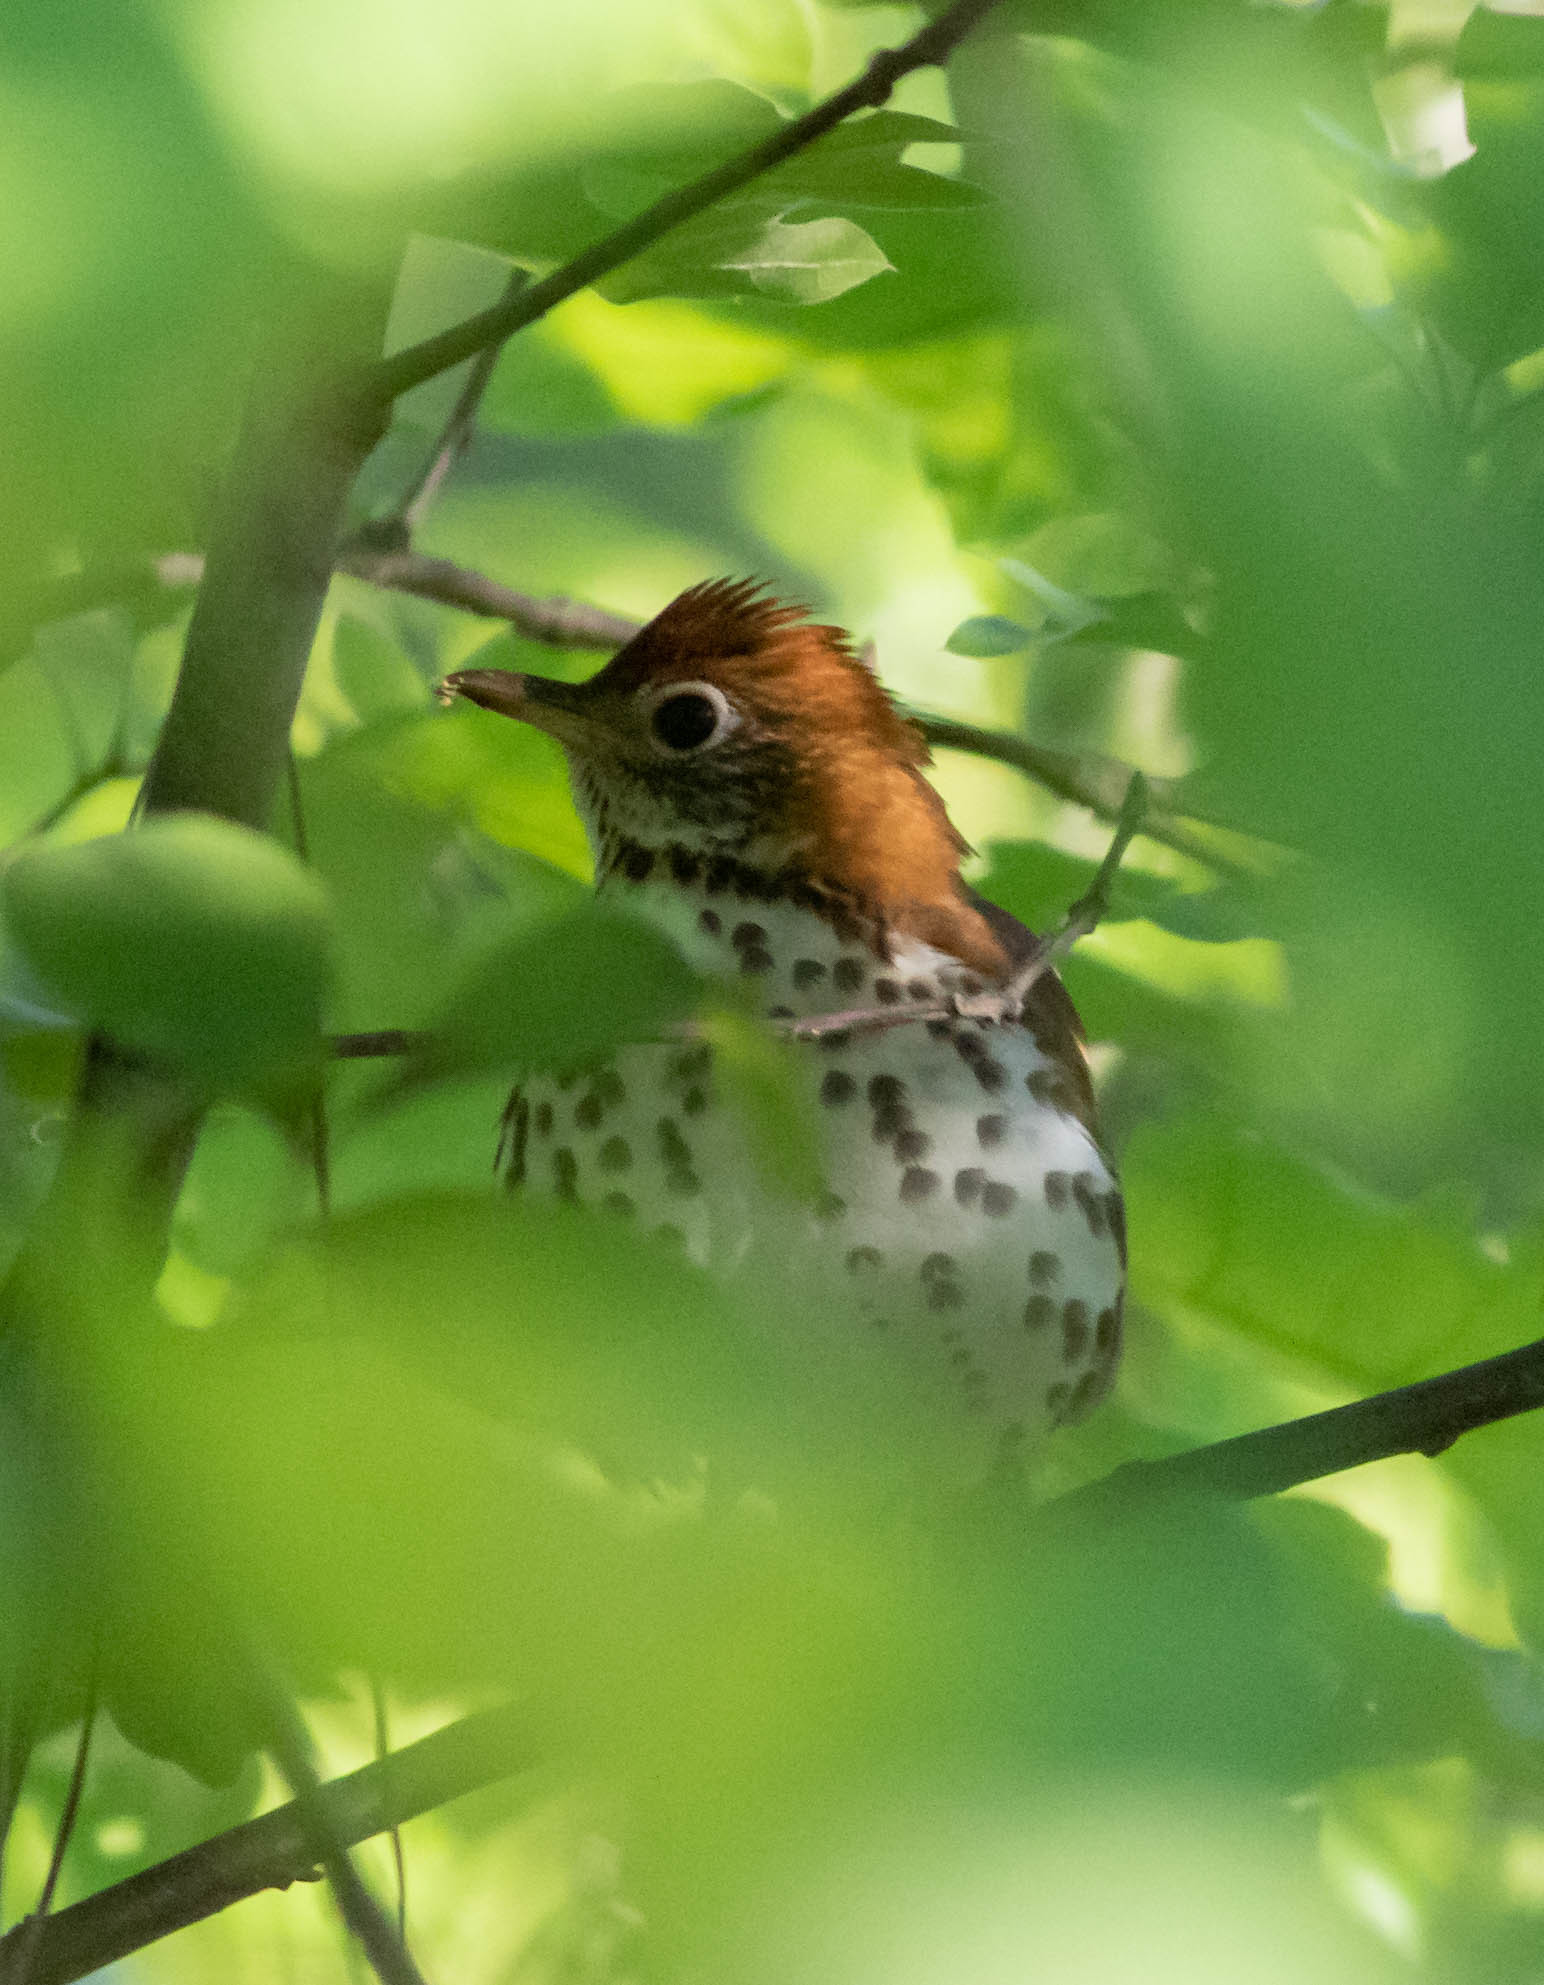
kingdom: Animalia
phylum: Chordata
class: Aves
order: Passeriformes
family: Turdidae
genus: Hylocichla
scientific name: Hylocichla mustelina
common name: Wood thrush
